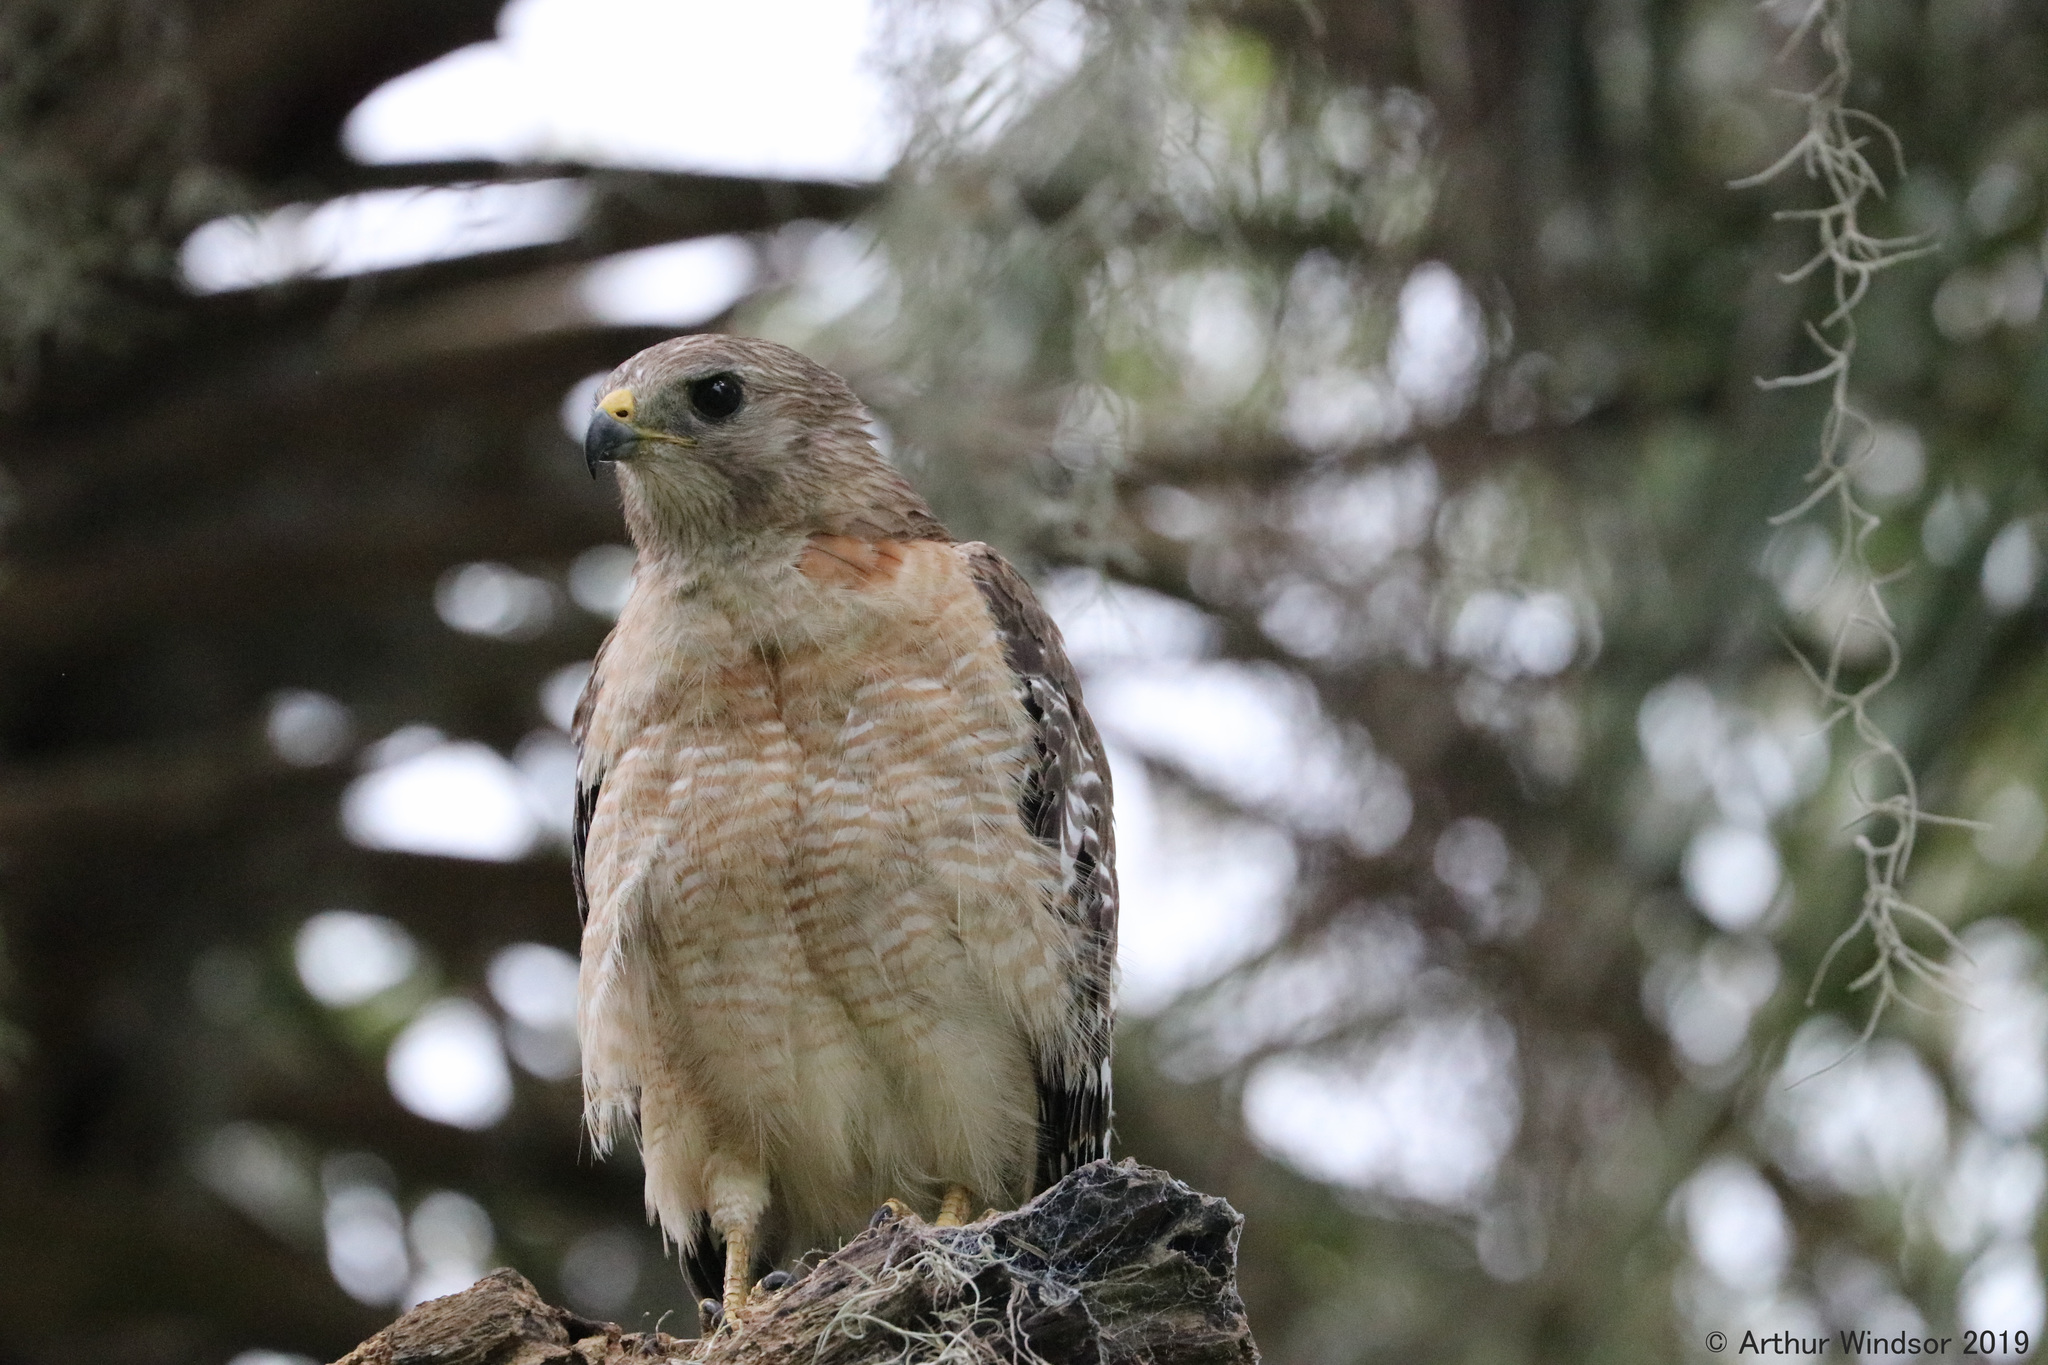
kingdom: Animalia
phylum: Chordata
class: Aves
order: Accipitriformes
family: Accipitridae
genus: Buteo
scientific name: Buteo lineatus
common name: Red-shouldered hawk
